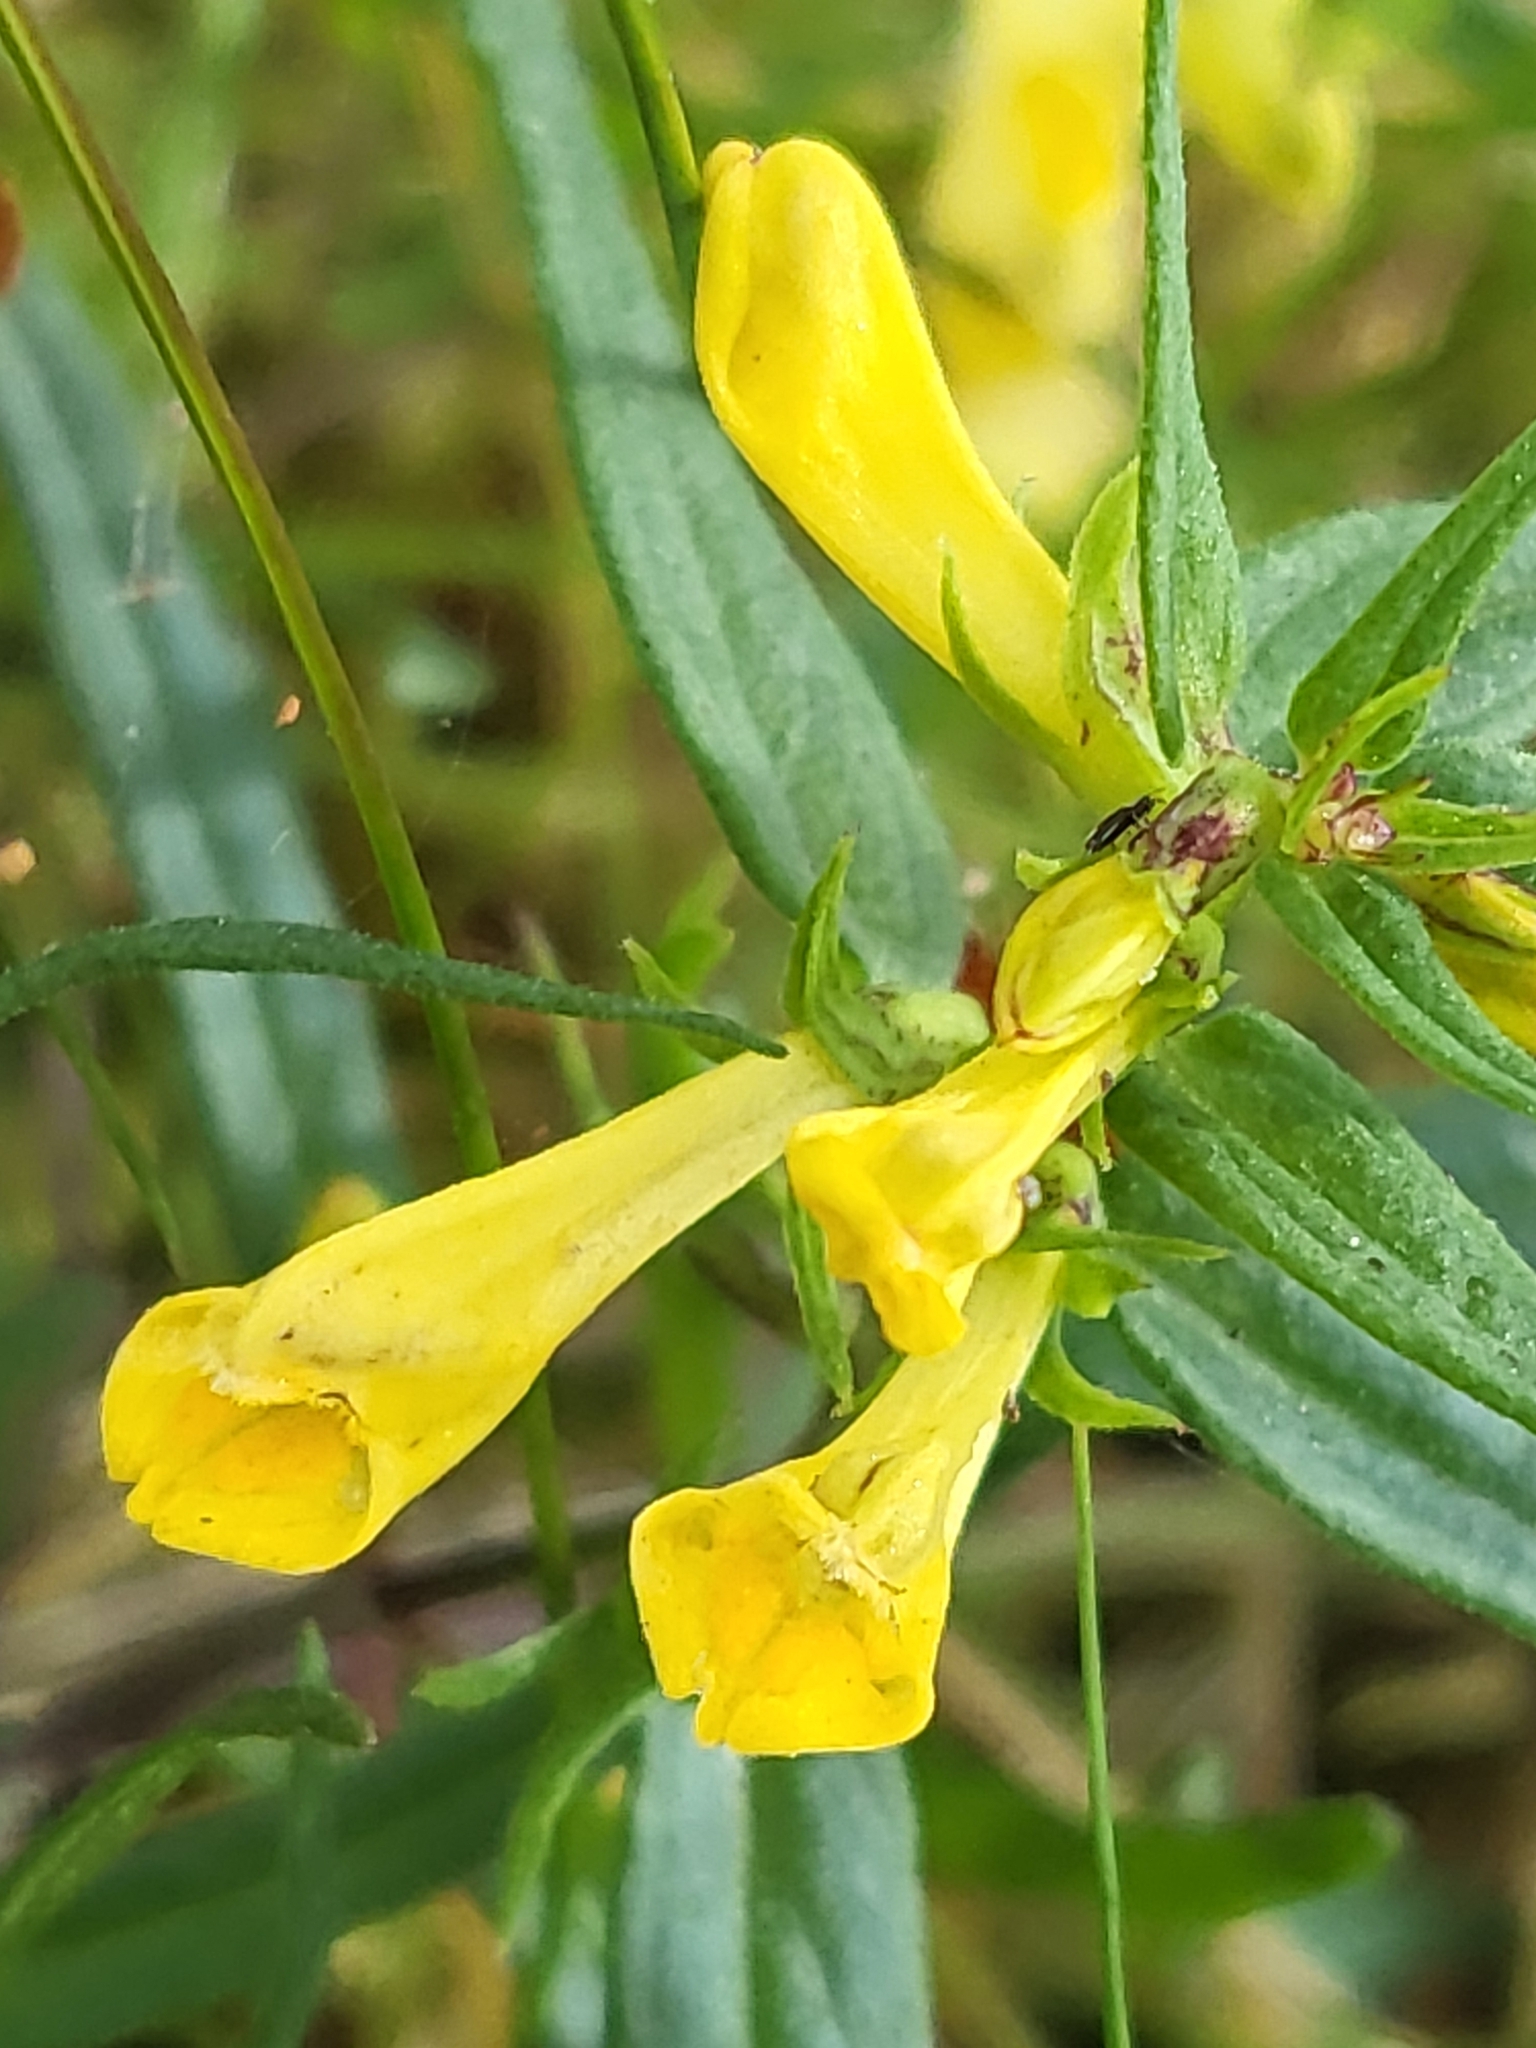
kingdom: Plantae
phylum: Tracheophyta
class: Magnoliopsida
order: Lamiales
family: Orobanchaceae
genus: Melampyrum
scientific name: Melampyrum pratense
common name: Common cow-wheat
